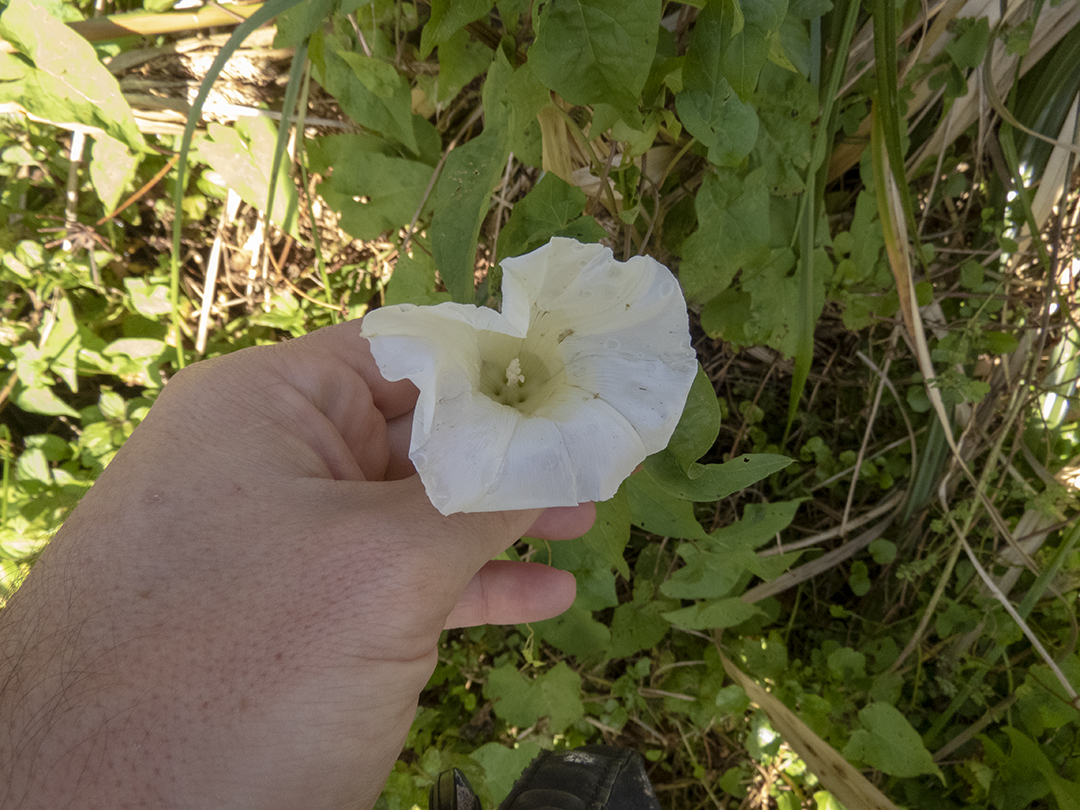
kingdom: Plantae
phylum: Tracheophyta
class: Magnoliopsida
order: Solanales
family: Convolvulaceae
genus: Calystegia
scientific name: Calystegia silvatica
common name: Large bindweed
